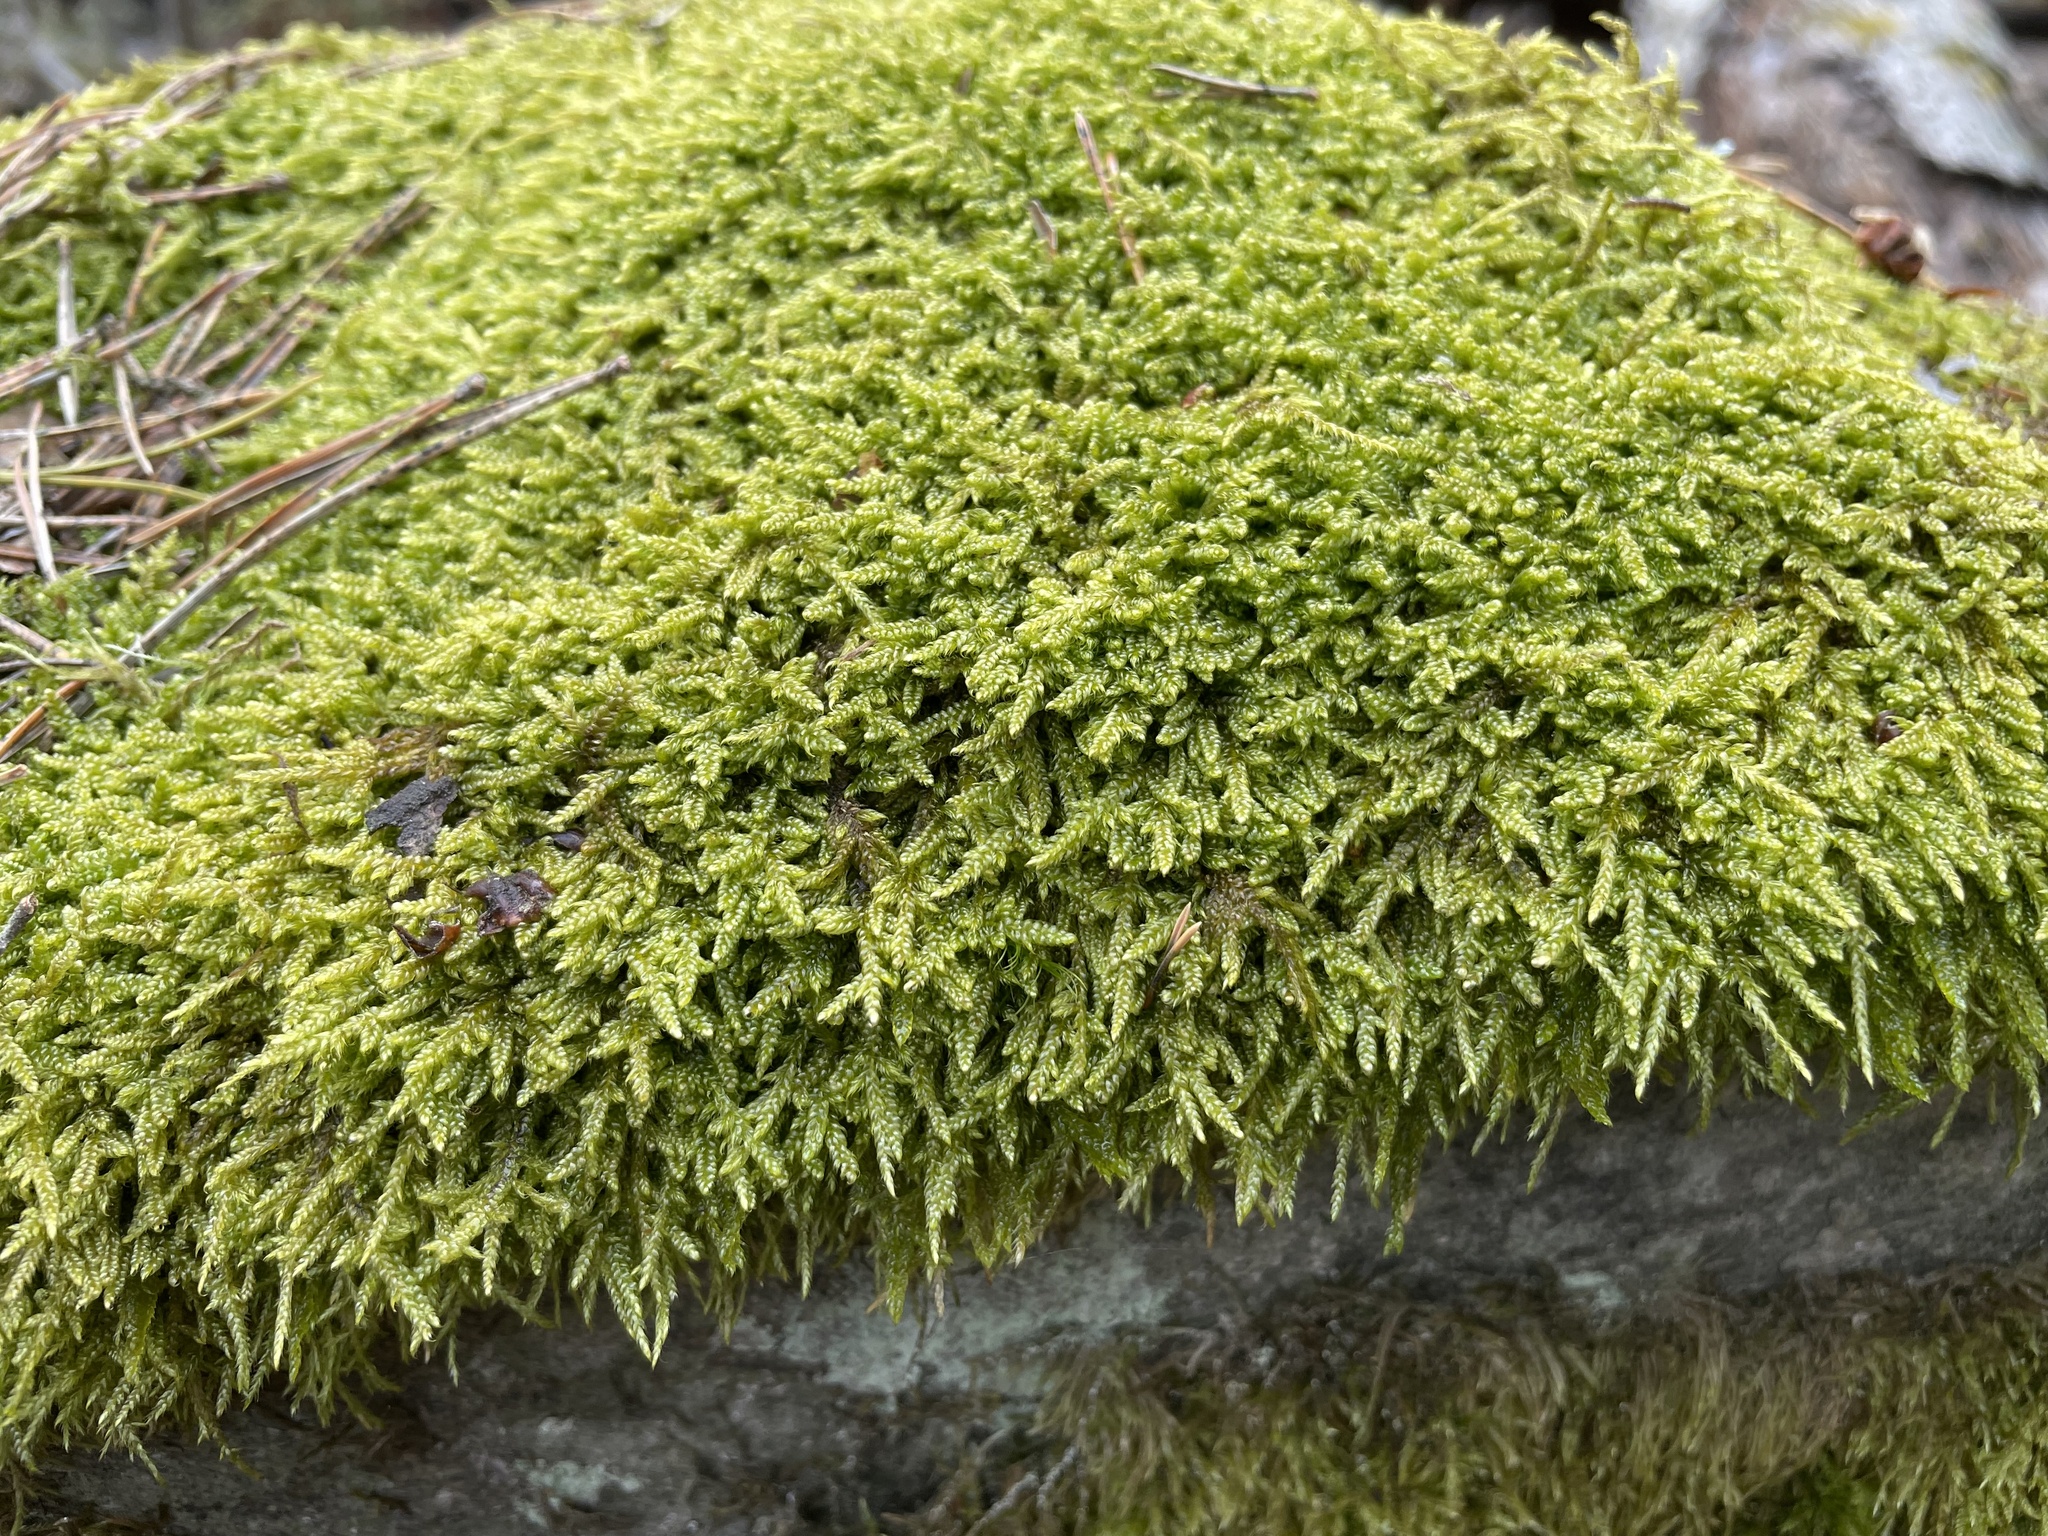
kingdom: Plantae
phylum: Bryophyta
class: Bryopsida
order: Hypnales
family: Hypnaceae
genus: Hypnum
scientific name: Hypnum cupressiforme
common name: Cypress-leaved plait-moss
